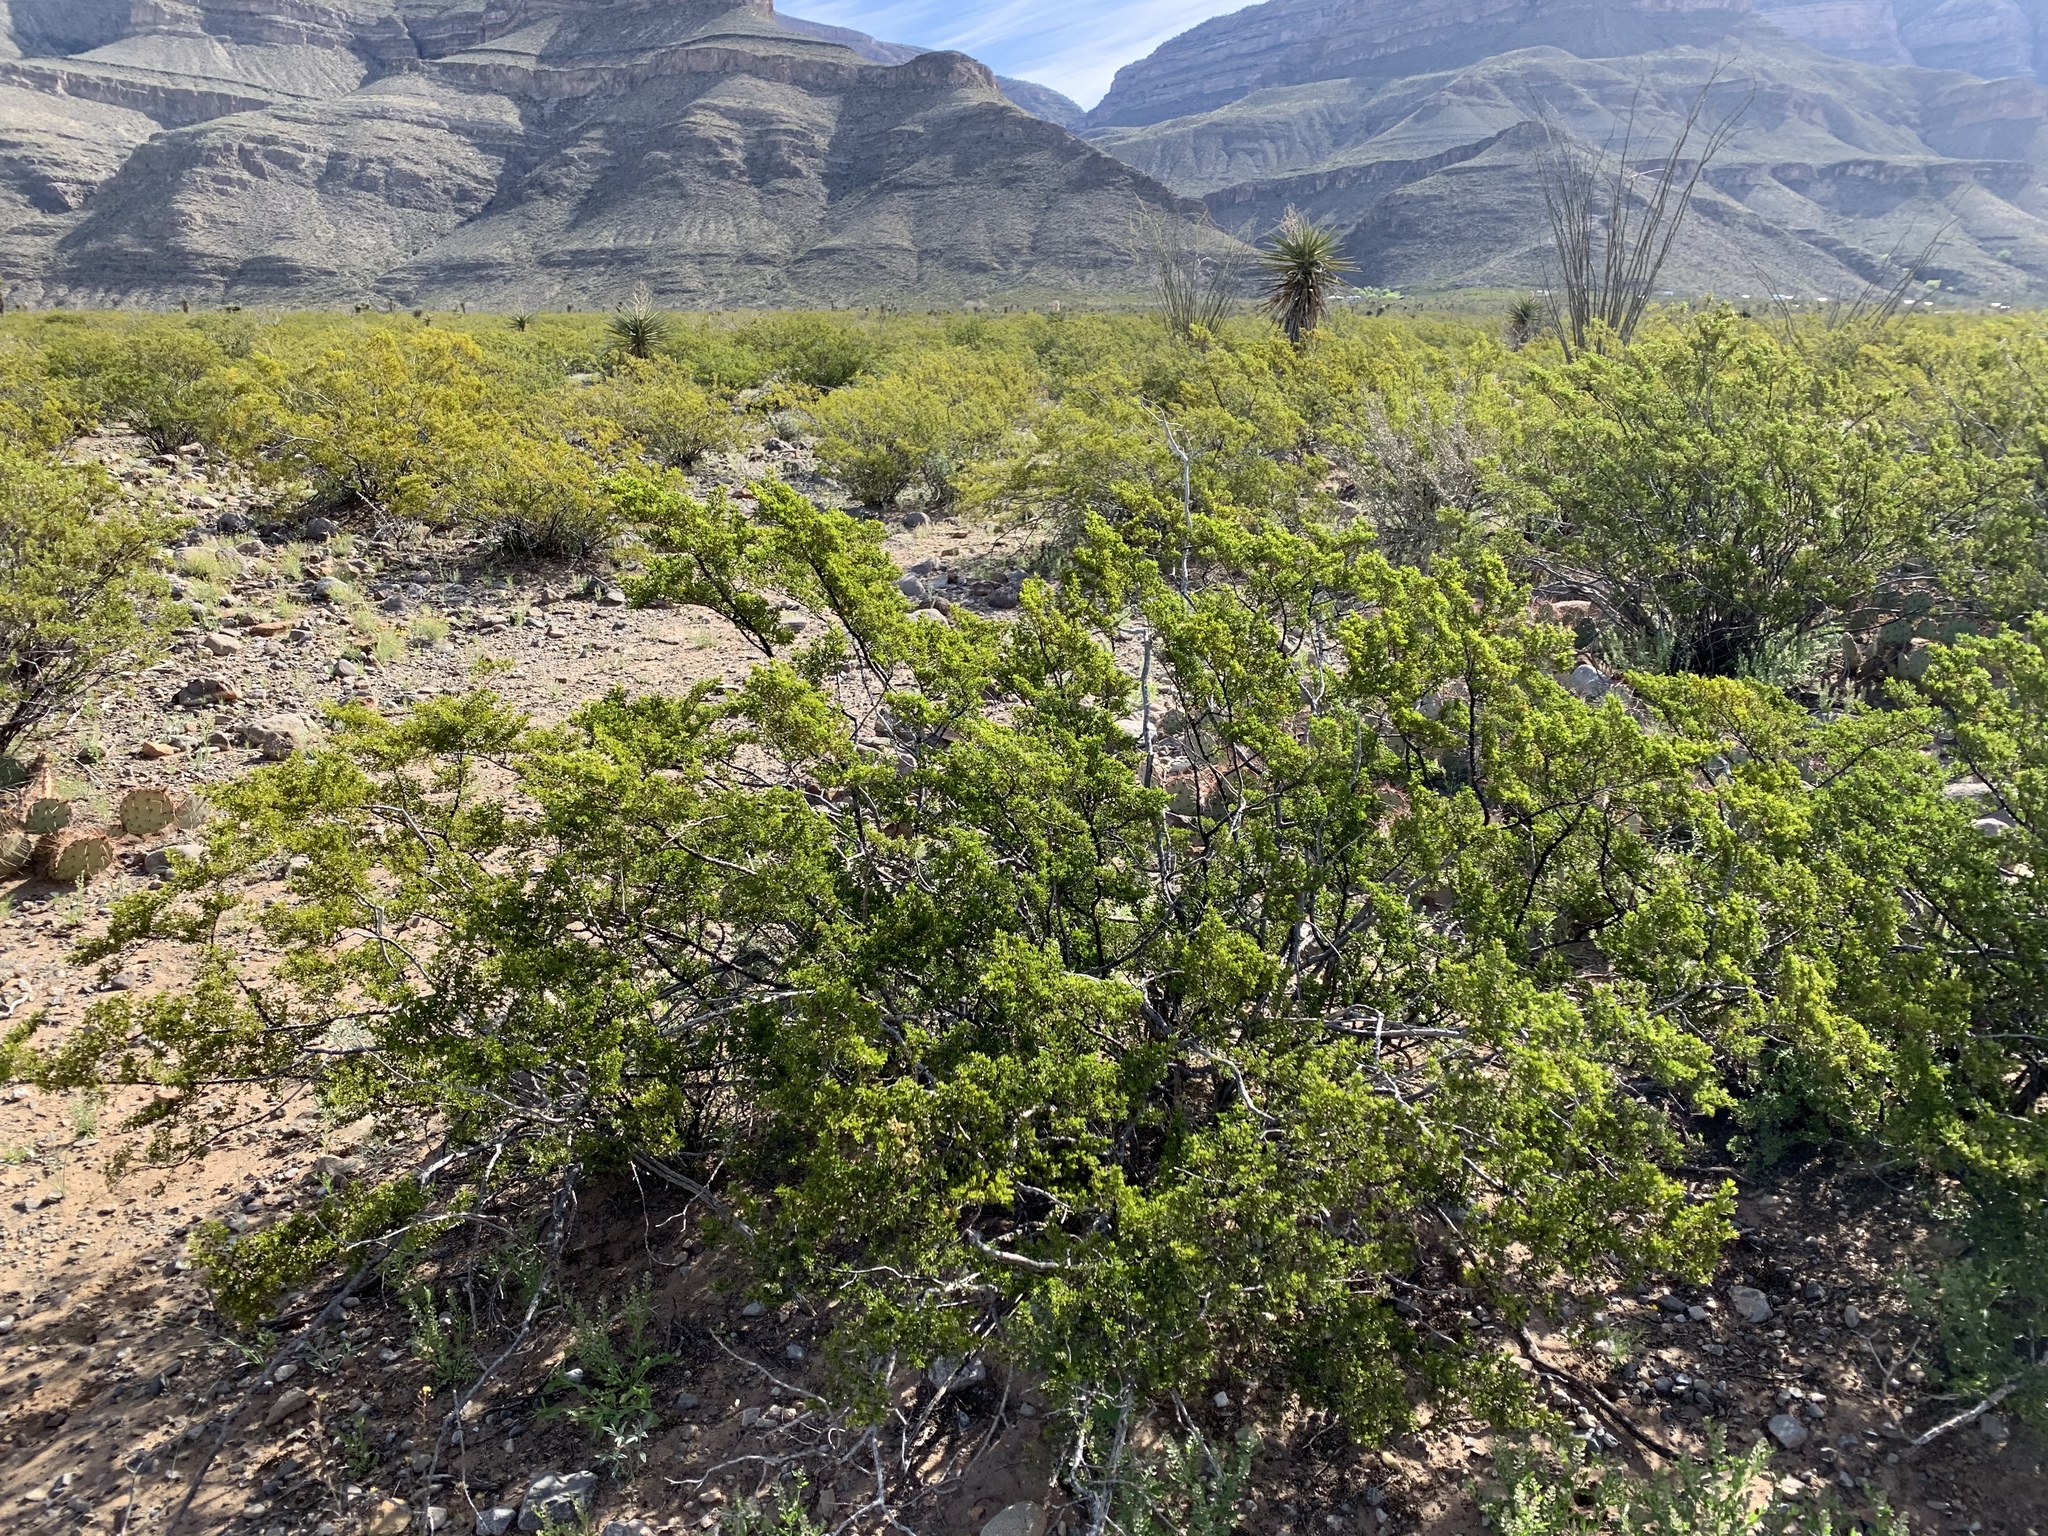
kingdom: Plantae
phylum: Tracheophyta
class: Magnoliopsida
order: Zygophyllales
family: Zygophyllaceae
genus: Larrea
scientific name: Larrea tridentata
